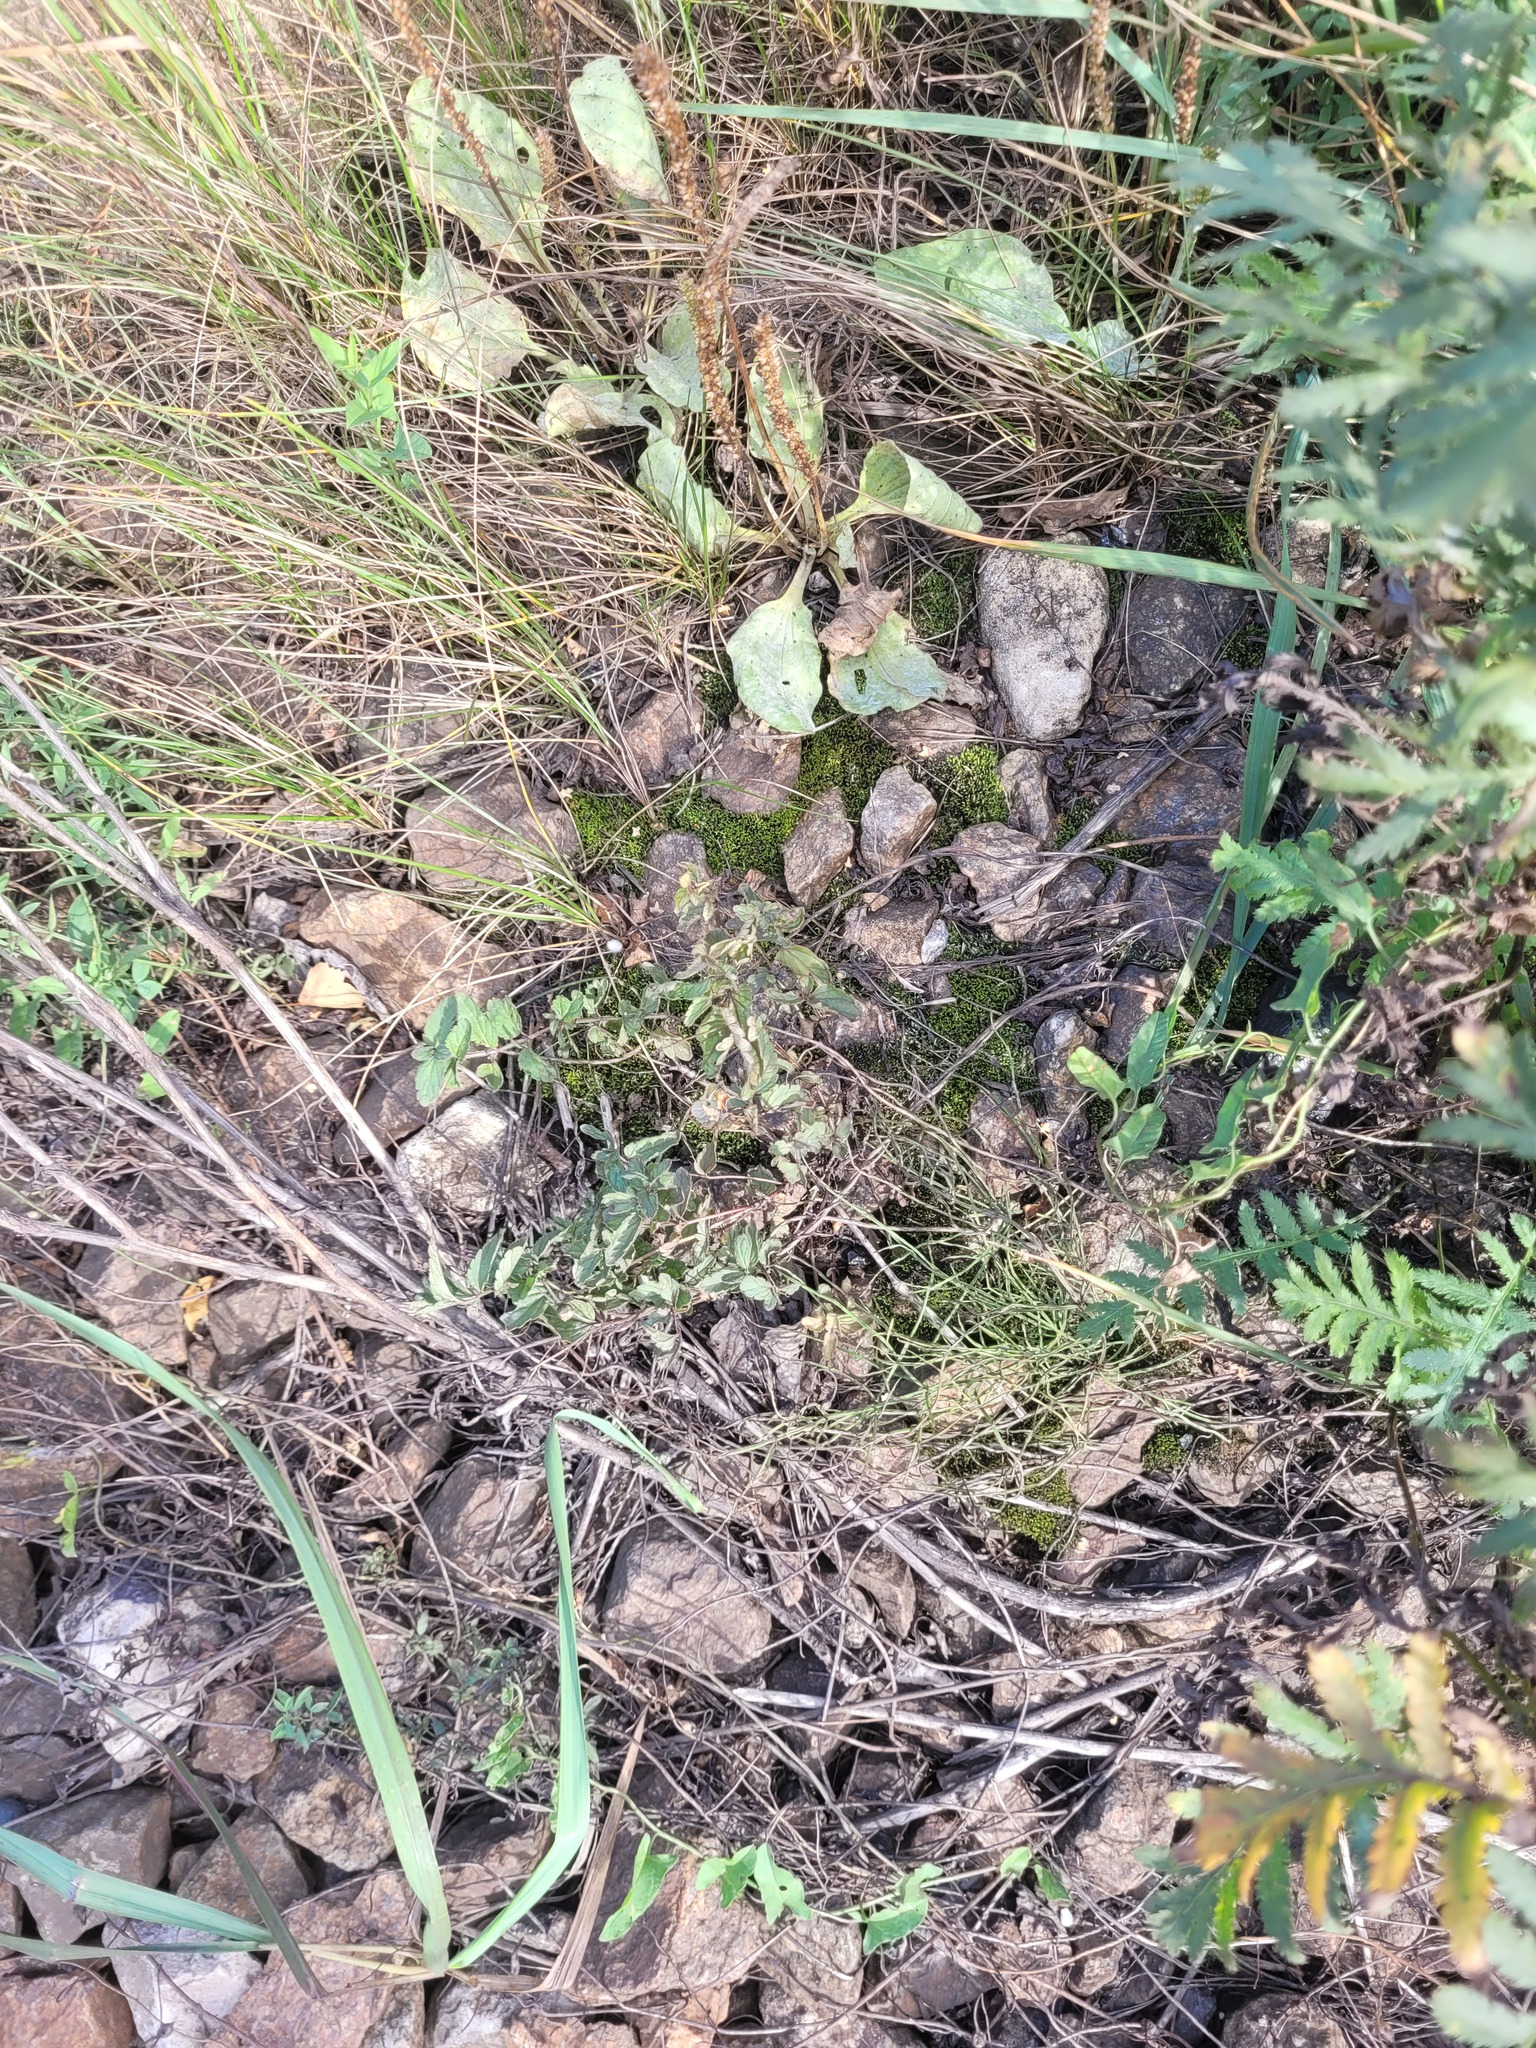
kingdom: Plantae
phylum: Tracheophyta
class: Magnoliopsida
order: Lamiales
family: Plantaginaceae
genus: Veronica
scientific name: Veronica chamaedrys
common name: Germander speedwell
